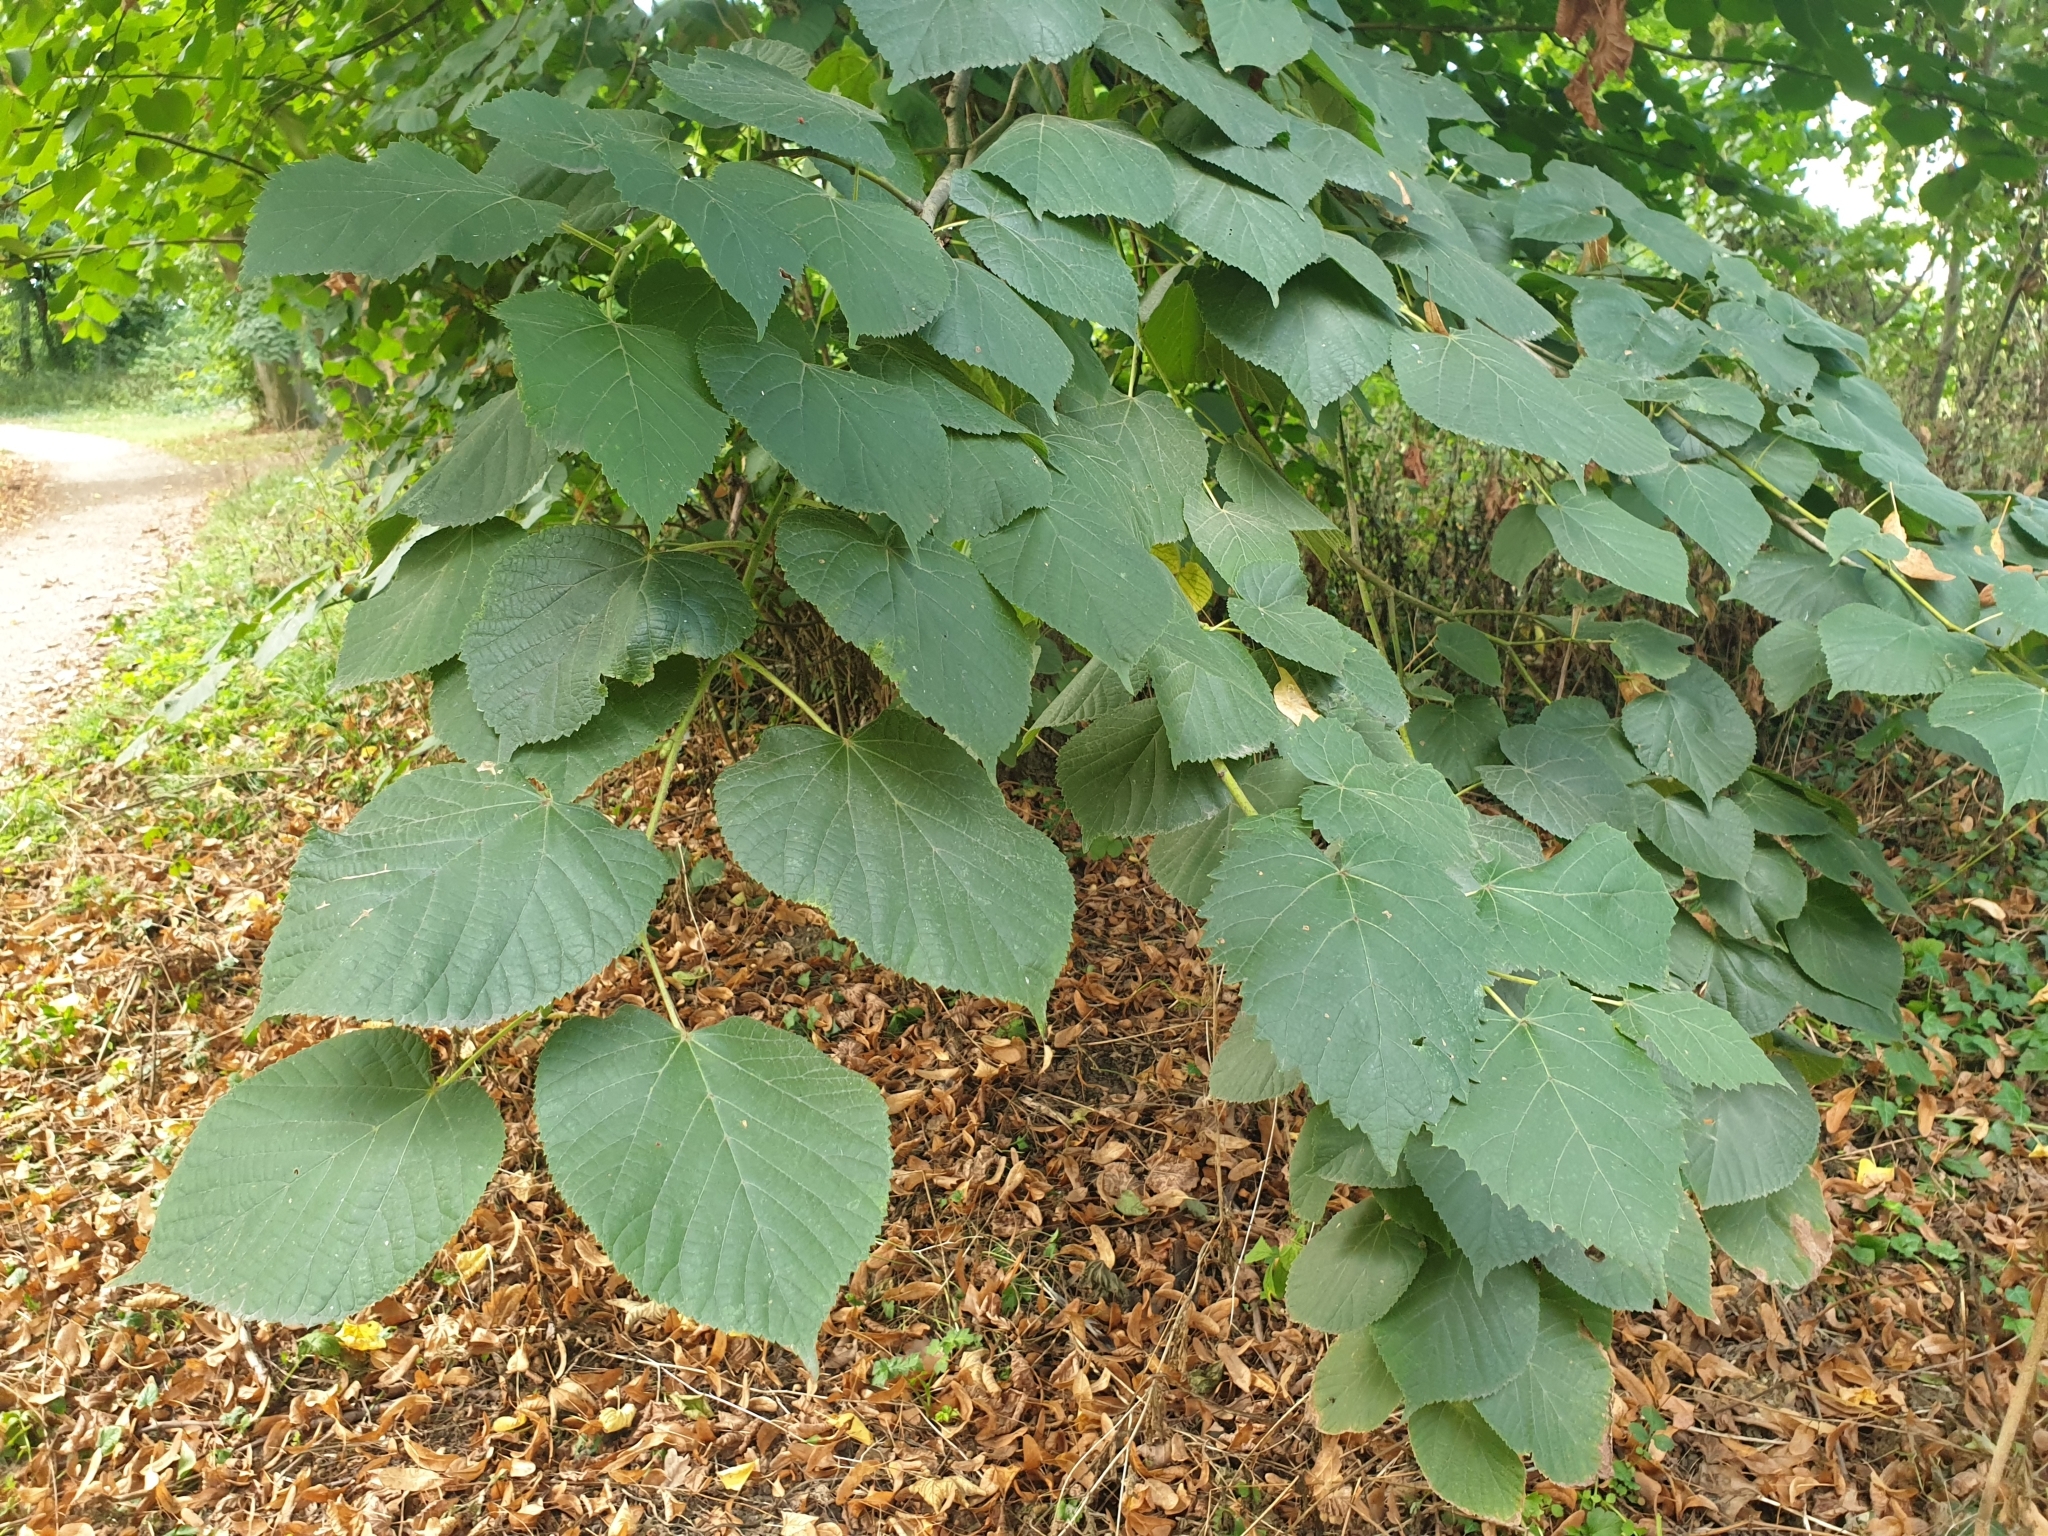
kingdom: Plantae
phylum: Tracheophyta
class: Magnoliopsida
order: Malvales
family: Malvaceae
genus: Tilia
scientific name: Tilia platyphyllos
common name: Large-leaved lime
